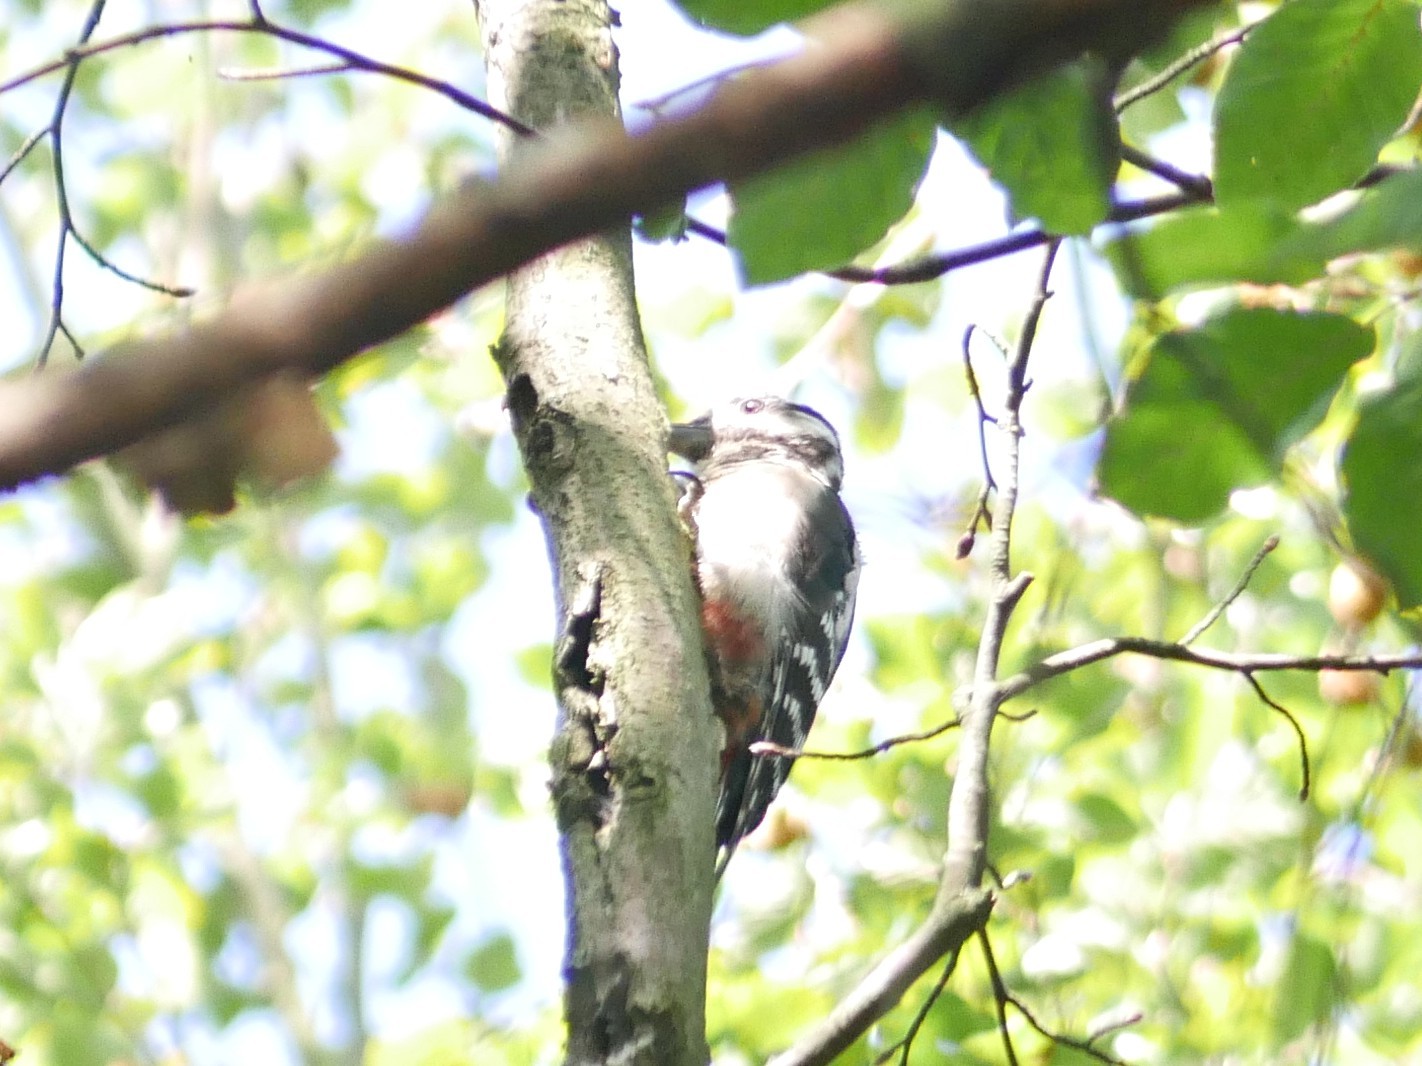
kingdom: Animalia
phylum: Chordata
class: Aves
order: Piciformes
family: Picidae
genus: Dendrocopos
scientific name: Dendrocopos major
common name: Great spotted woodpecker
